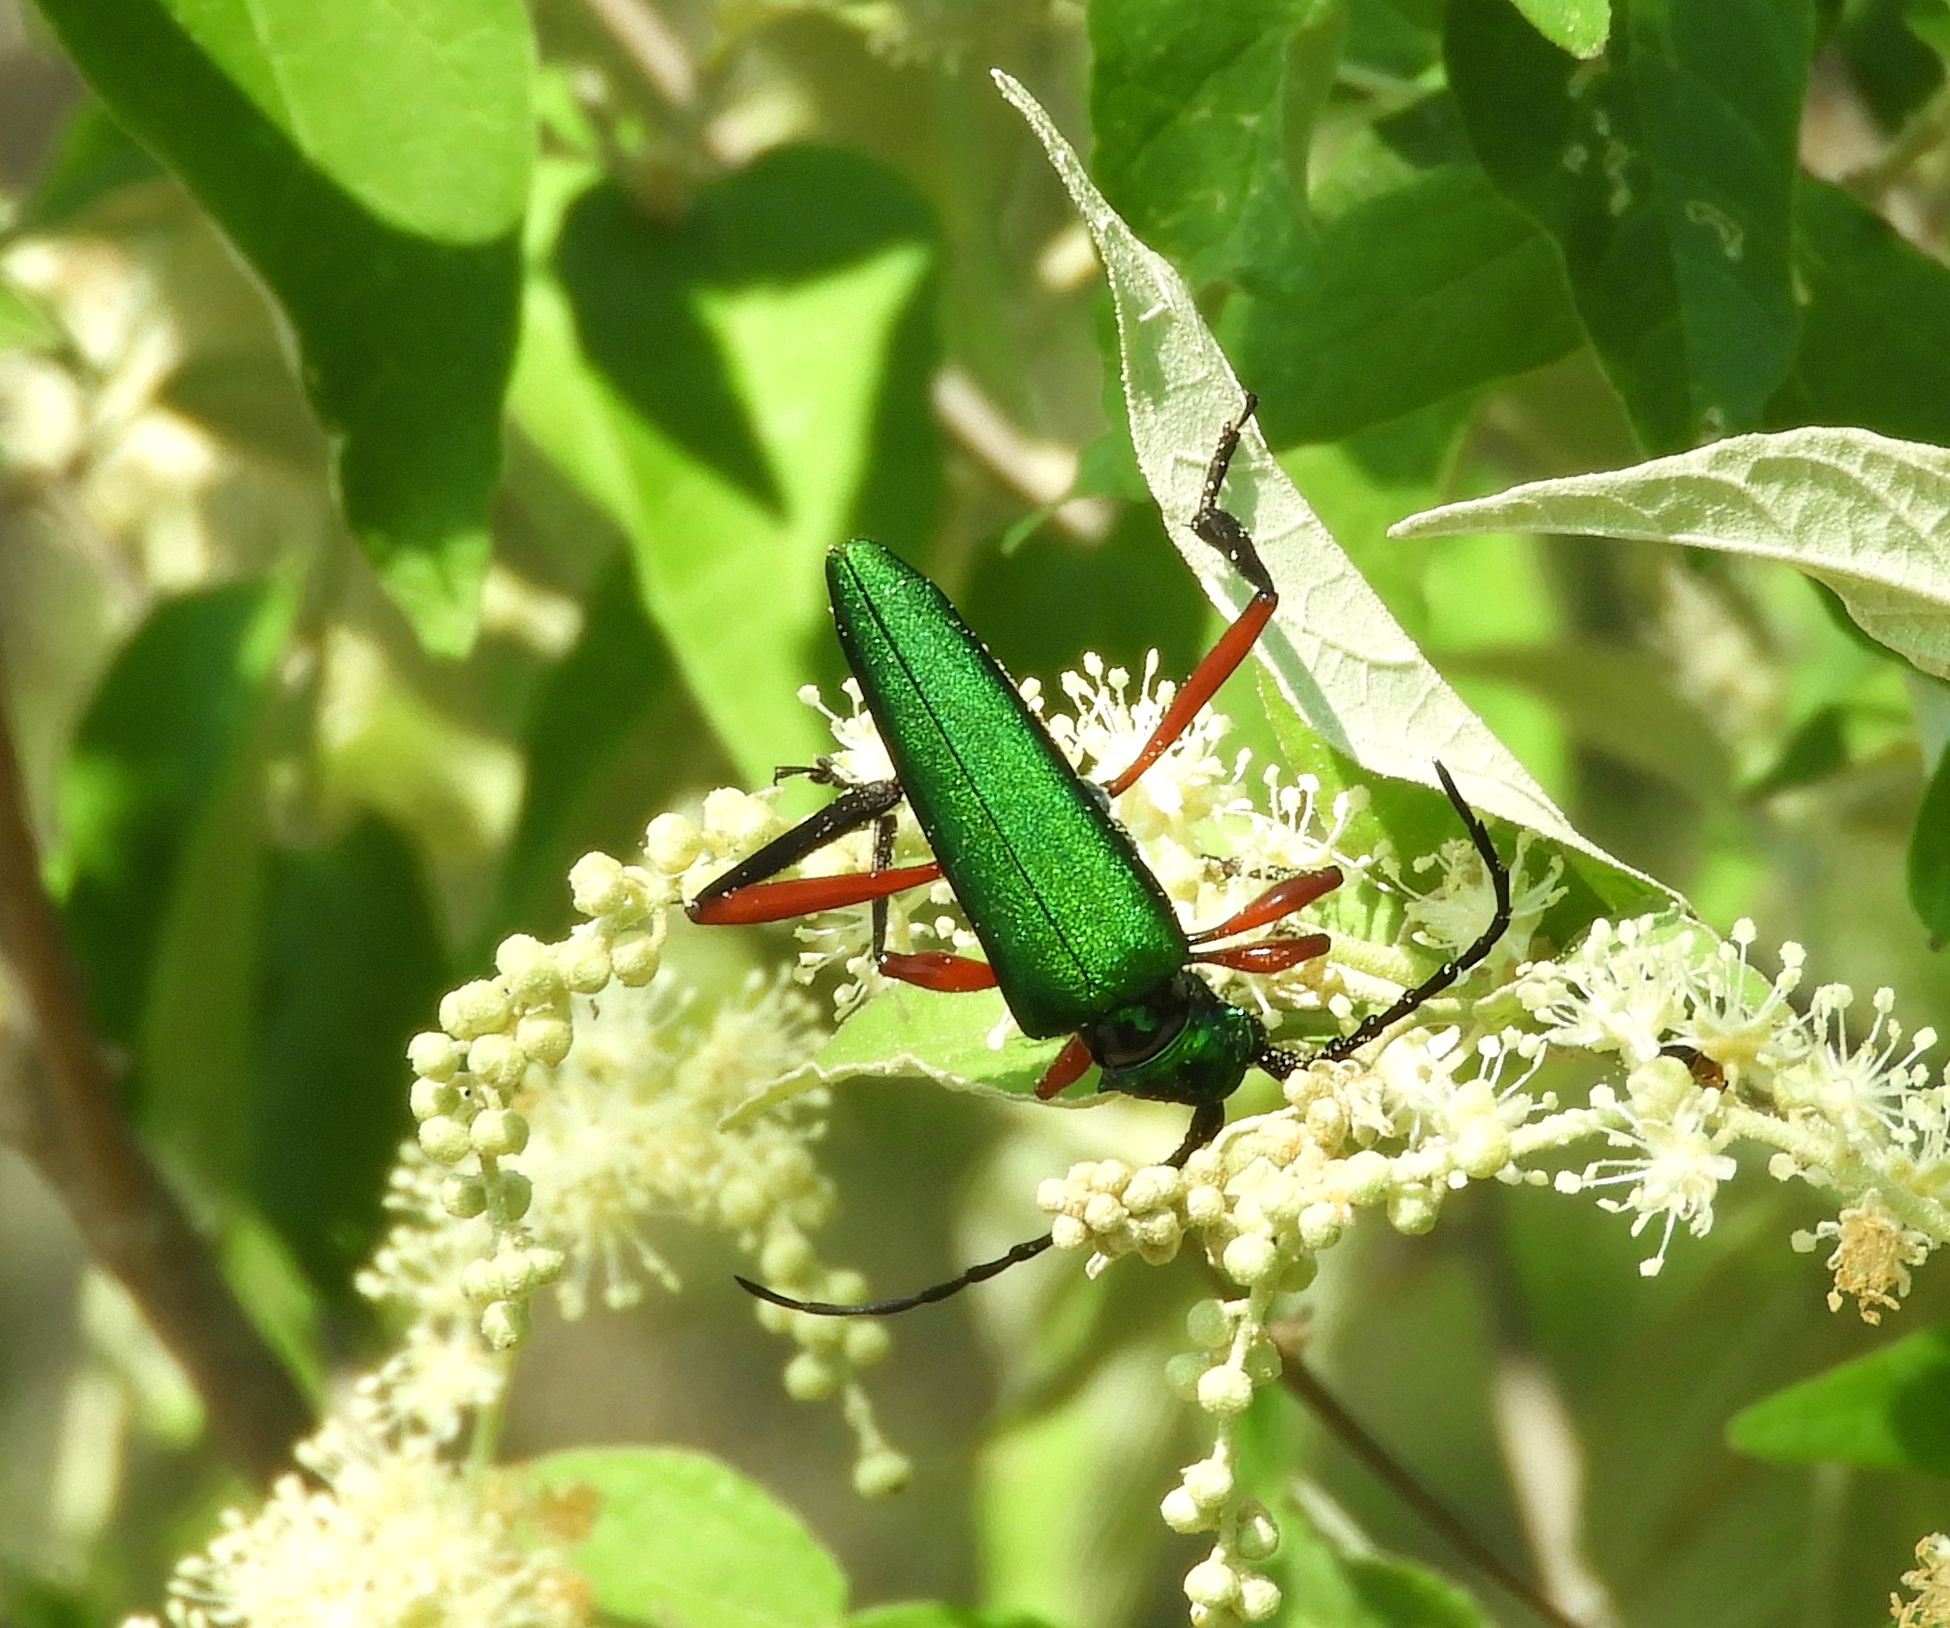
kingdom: Animalia
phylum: Arthropoda
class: Insecta
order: Coleoptera
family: Cerambycidae
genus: Plinthocoelium
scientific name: Plinthocoelium chilensis
